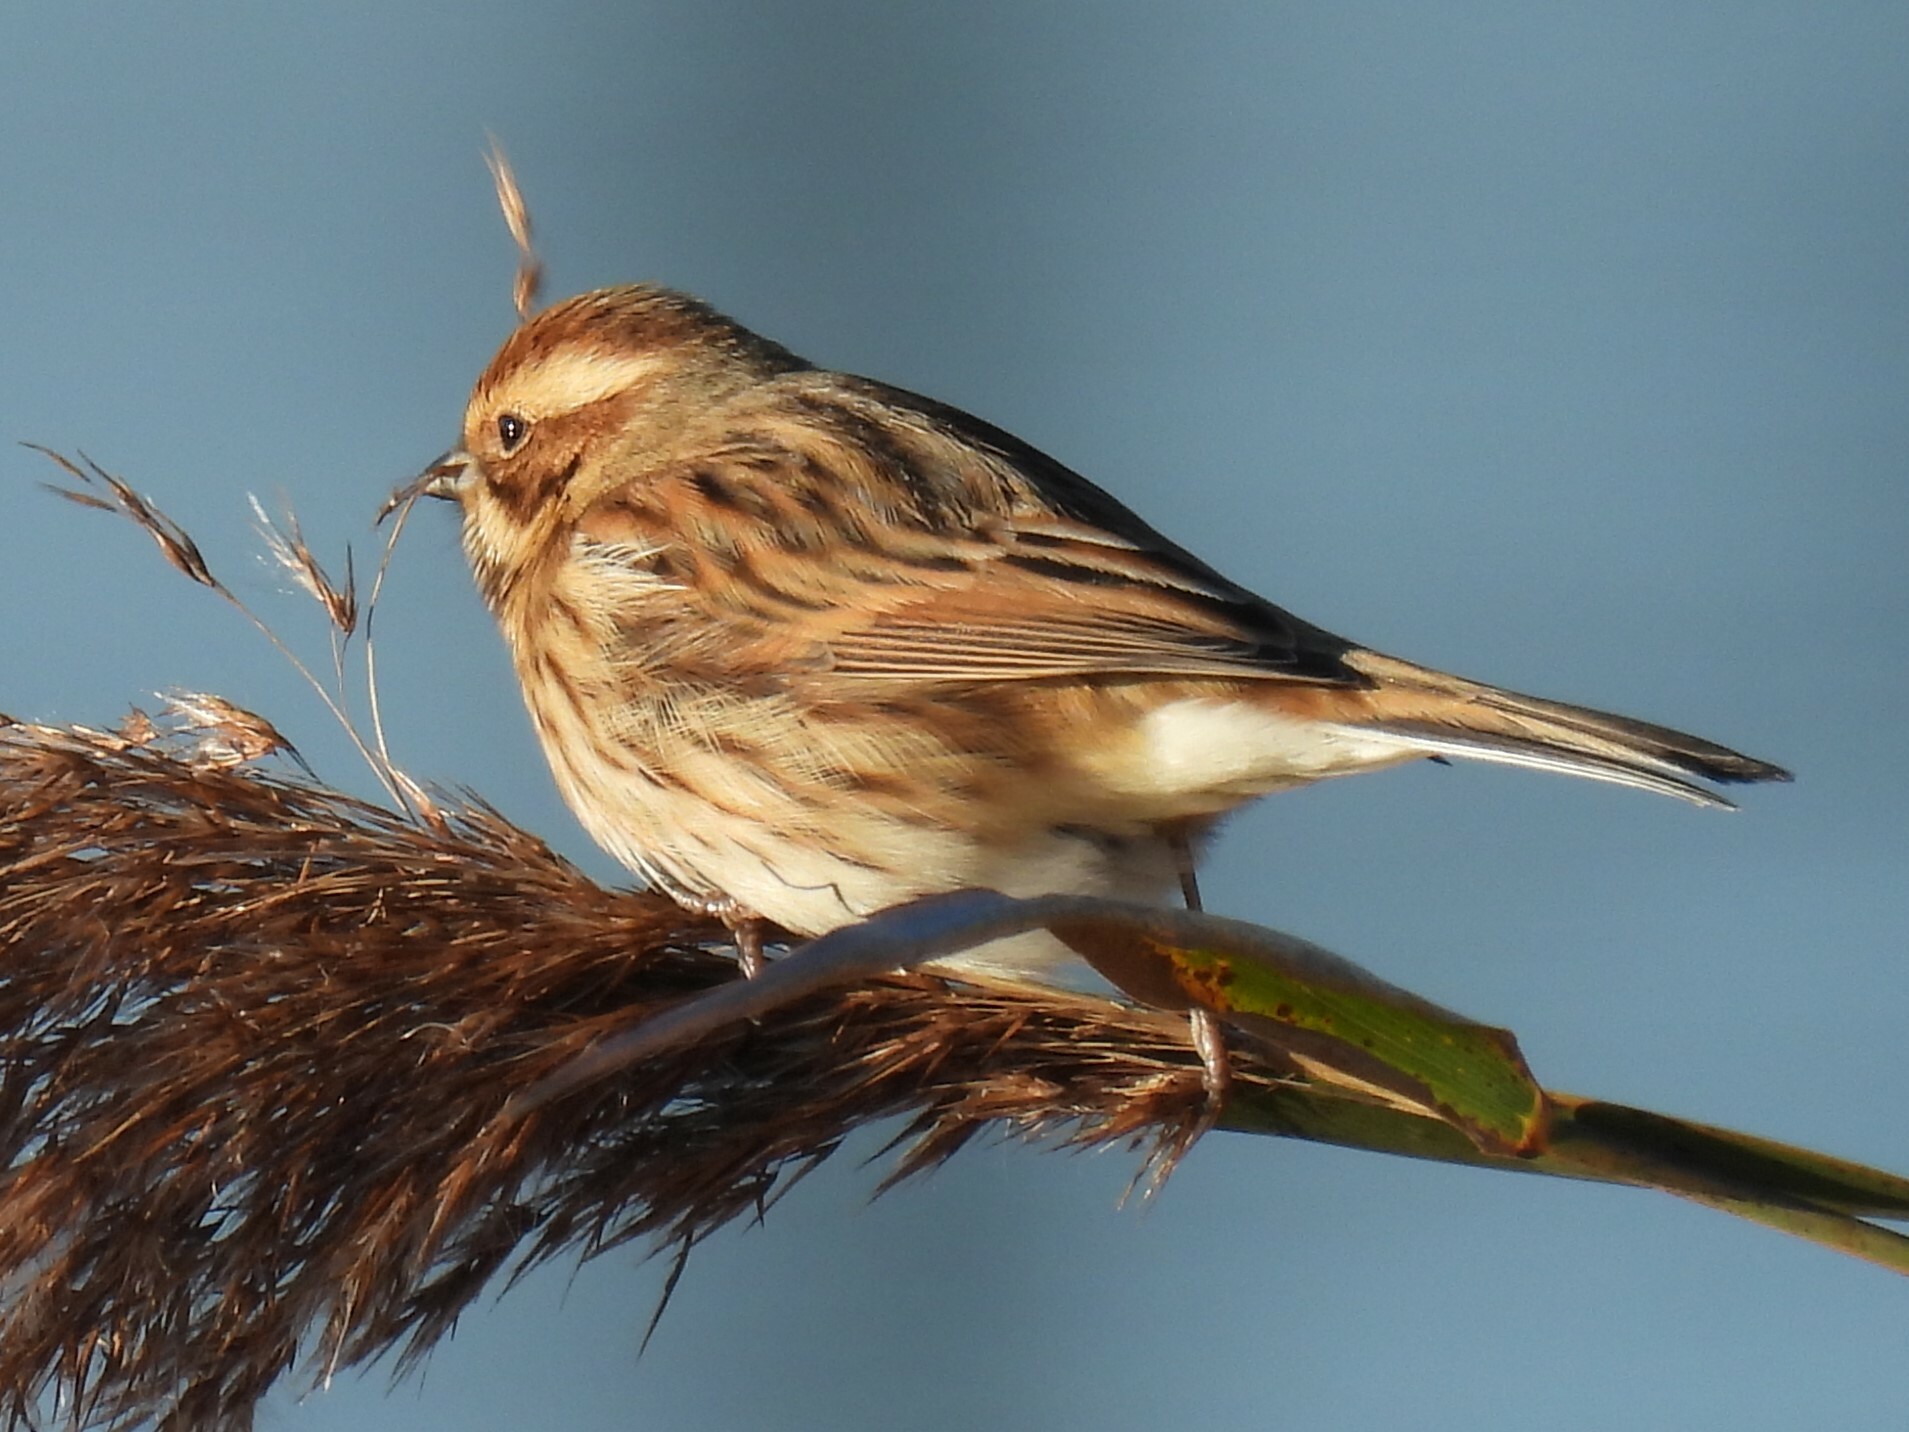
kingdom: Animalia
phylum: Chordata
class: Aves
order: Passeriformes
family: Emberizidae
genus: Emberiza
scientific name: Emberiza schoeniclus
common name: Reed bunting
